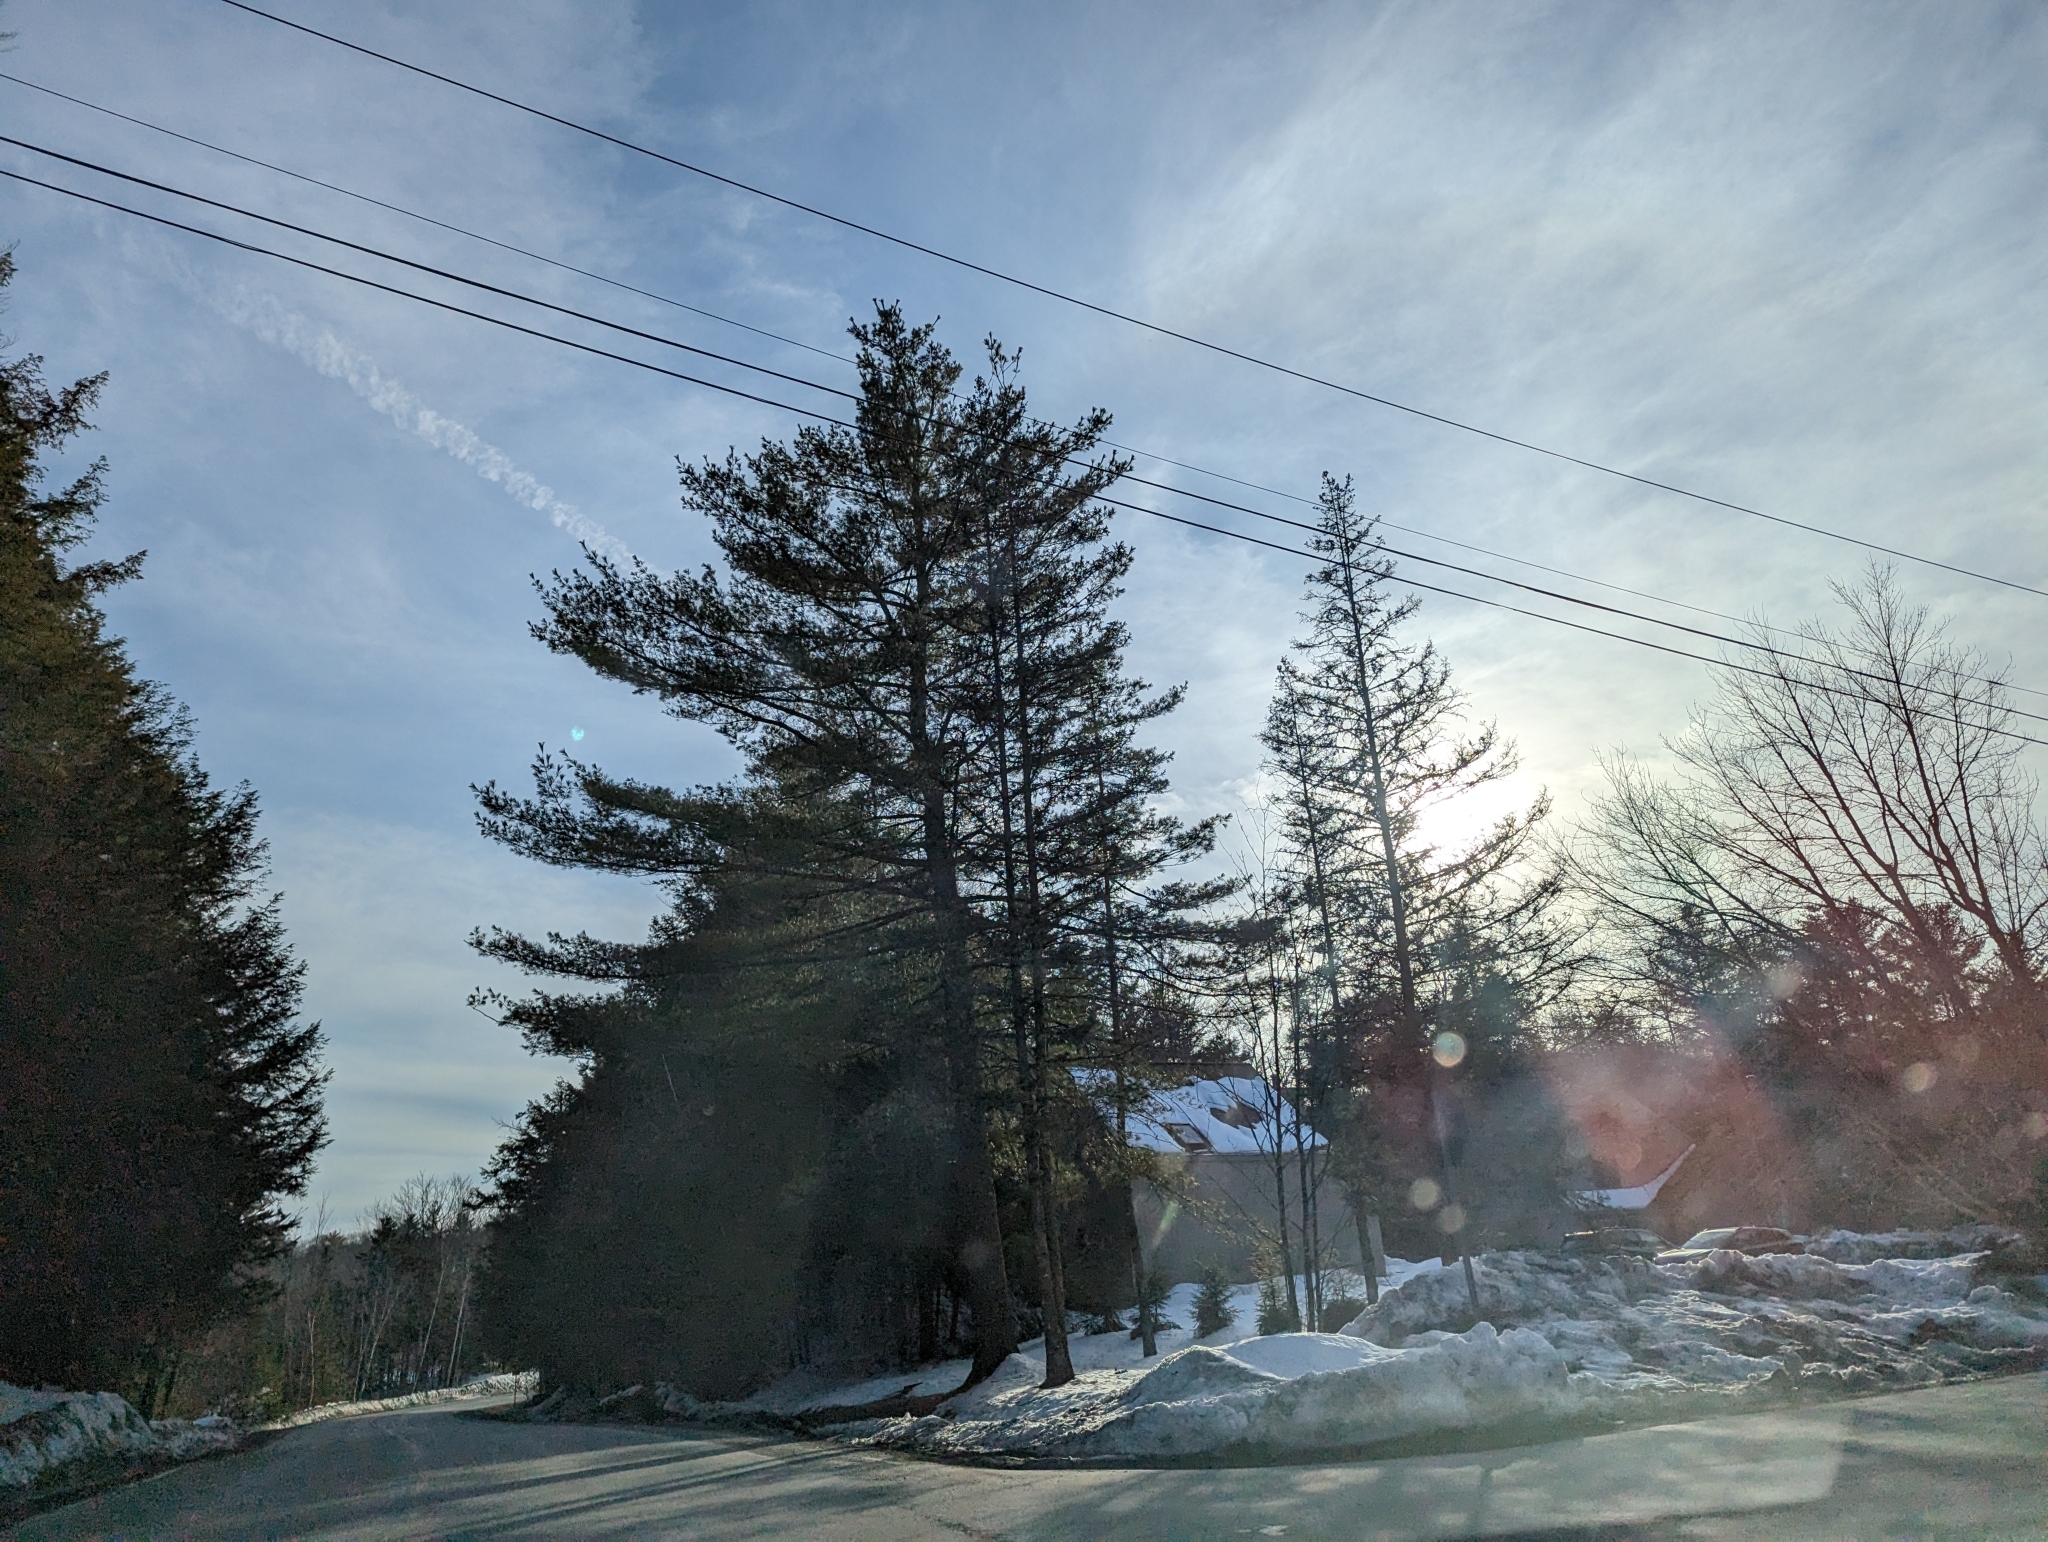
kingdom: Plantae
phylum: Tracheophyta
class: Pinopsida
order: Pinales
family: Pinaceae
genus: Pinus
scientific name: Pinus strobus
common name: Weymouth pine
